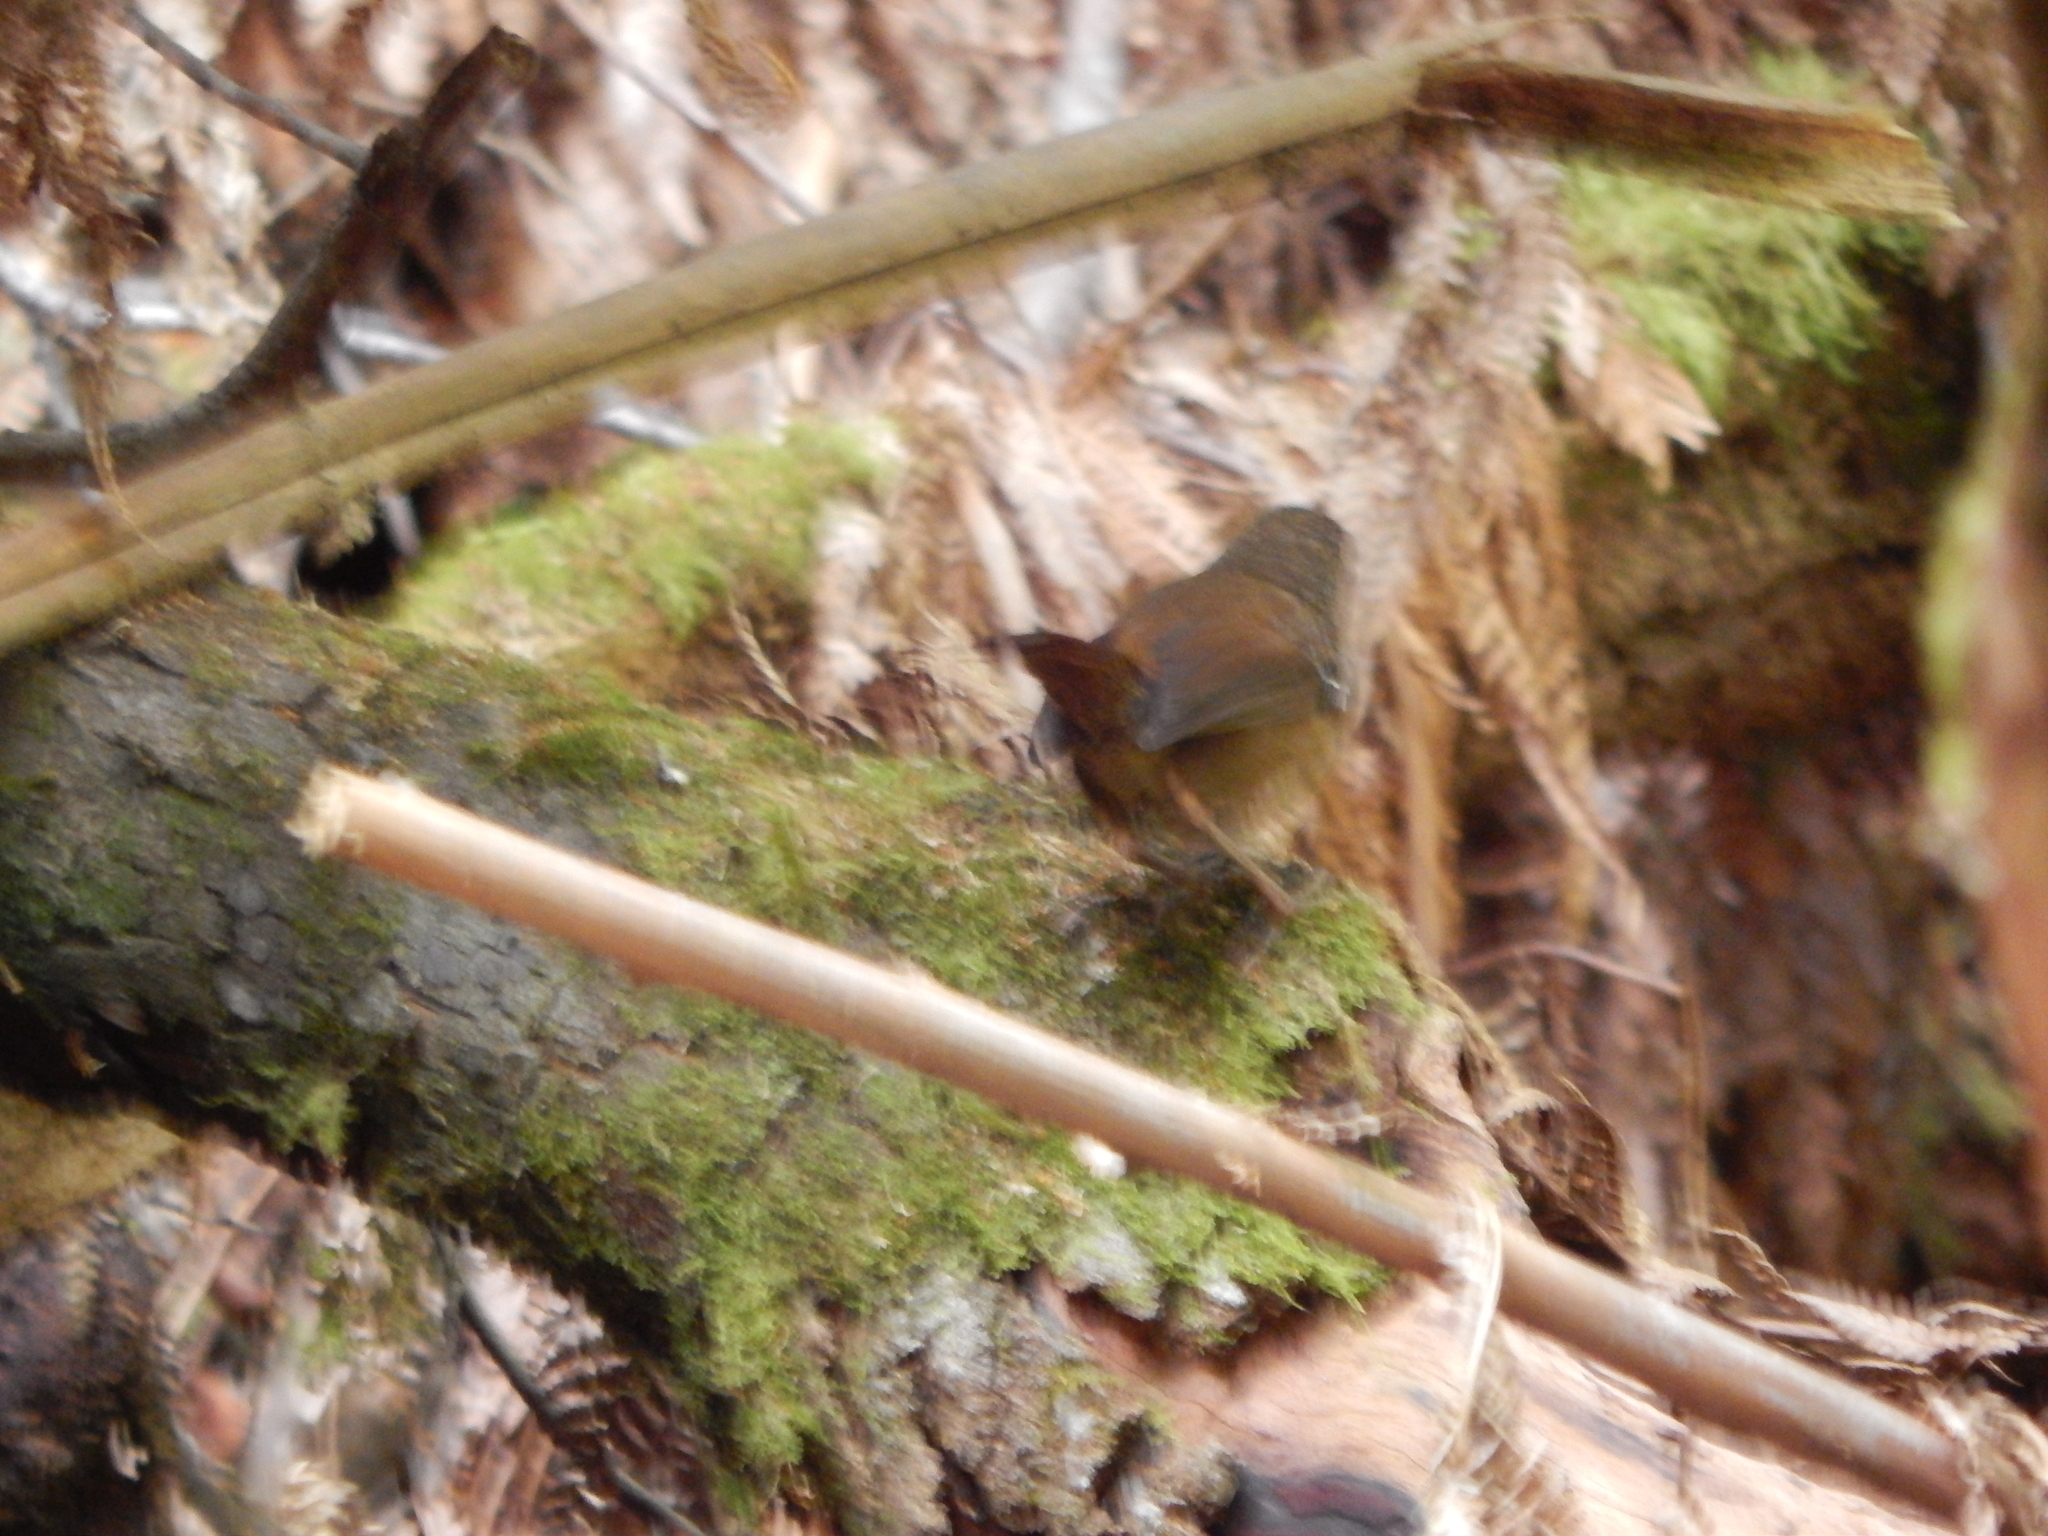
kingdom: Animalia
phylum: Chordata
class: Aves
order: Passeriformes
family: Acanthizidae
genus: Sericornis
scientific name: Sericornis humilis
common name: Tasmanian scrubwren
